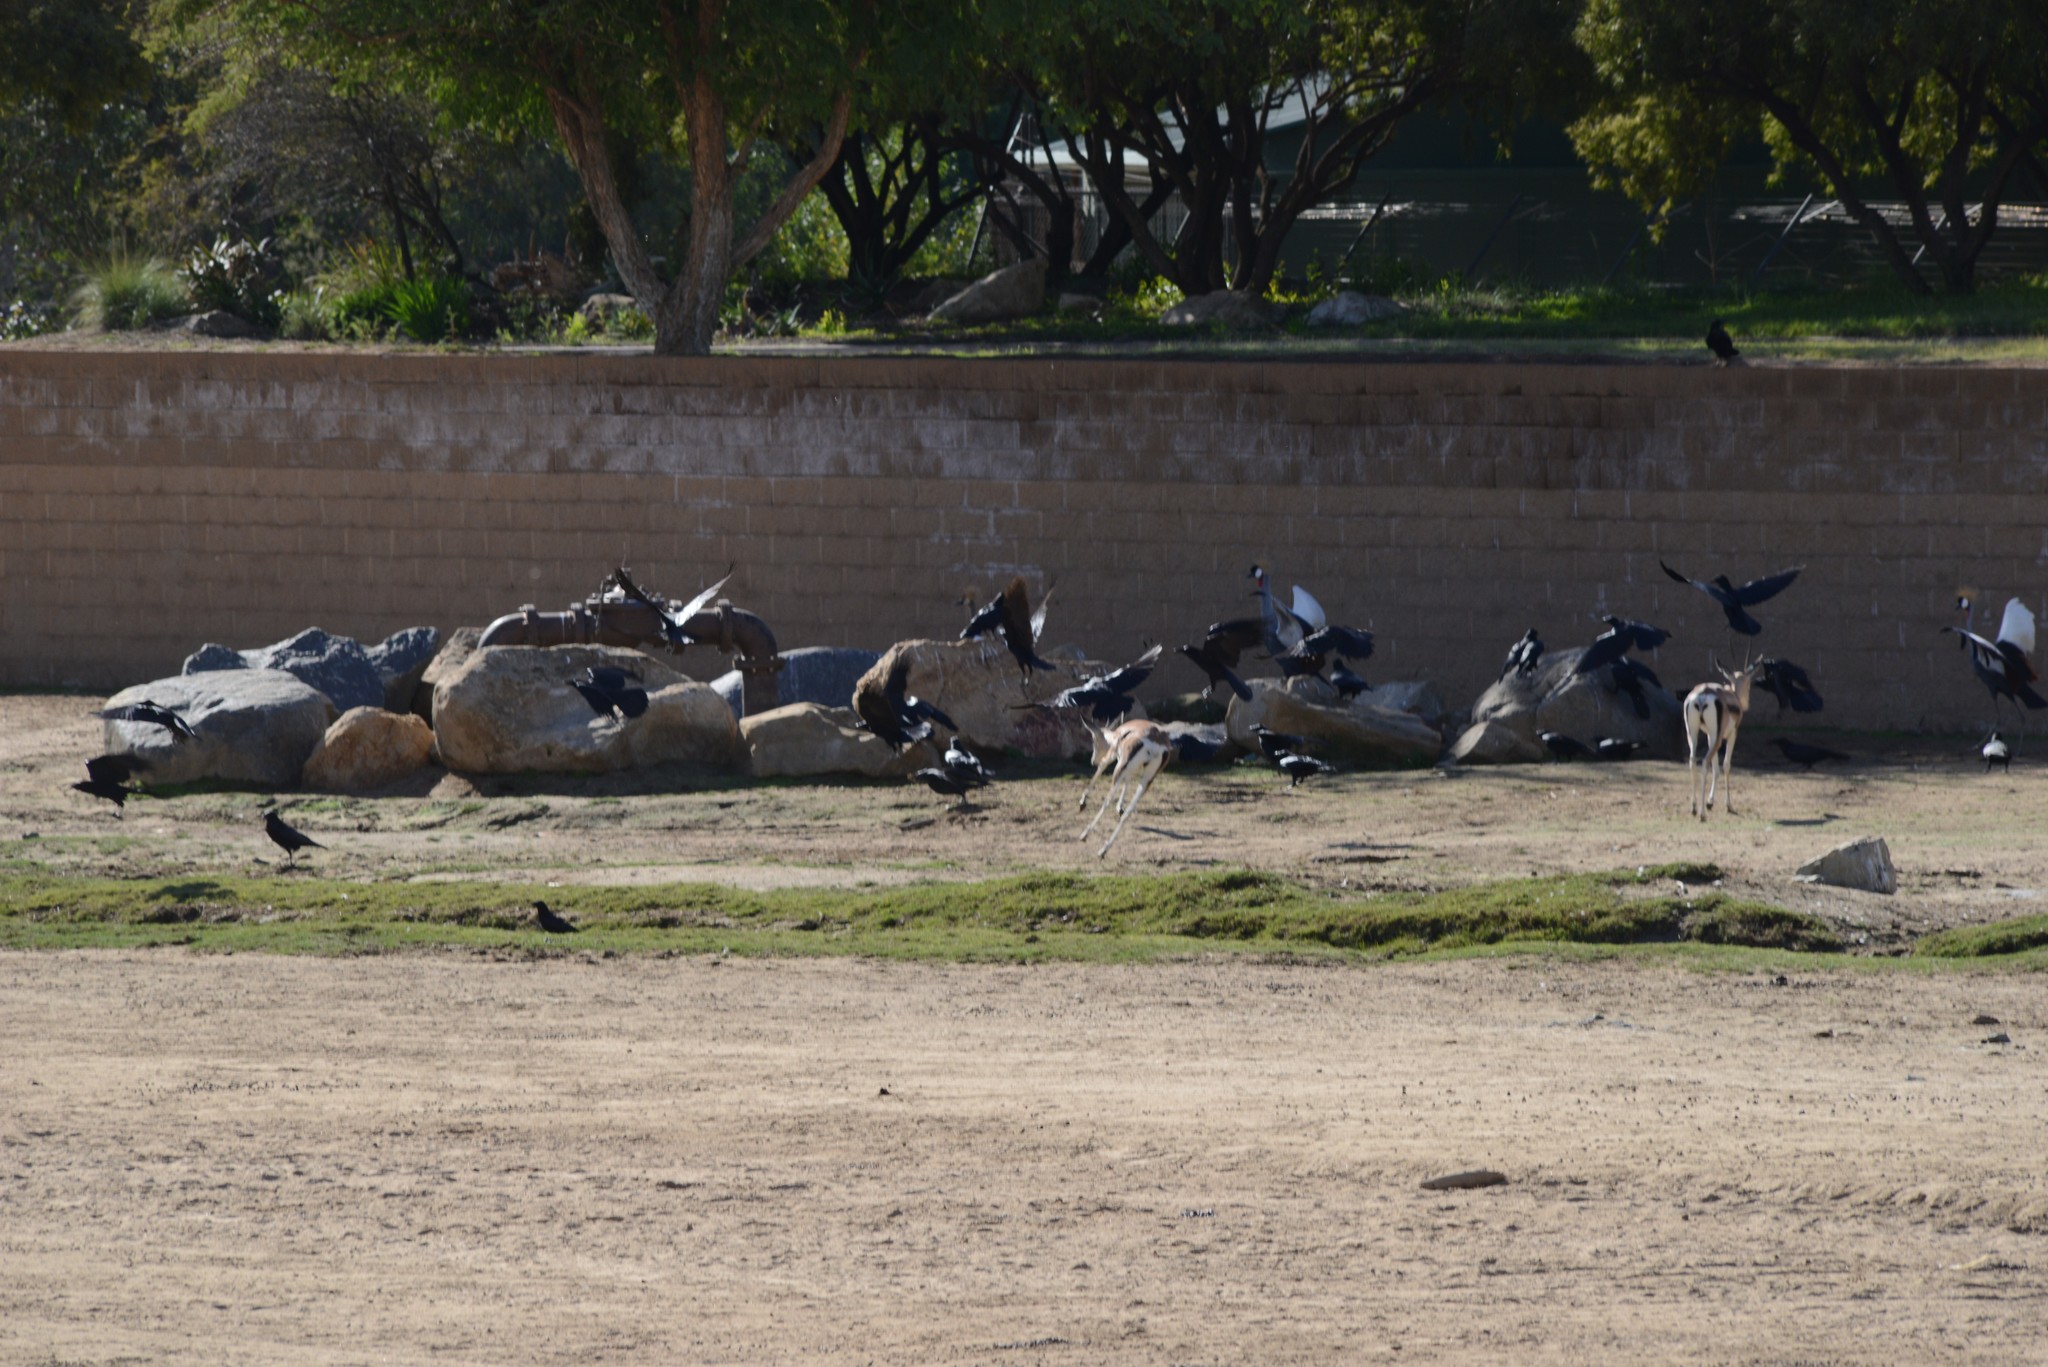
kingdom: Animalia
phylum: Chordata
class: Aves
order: Passeriformes
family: Corvidae
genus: Corvus
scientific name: Corvus brachyrhynchos
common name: American crow
